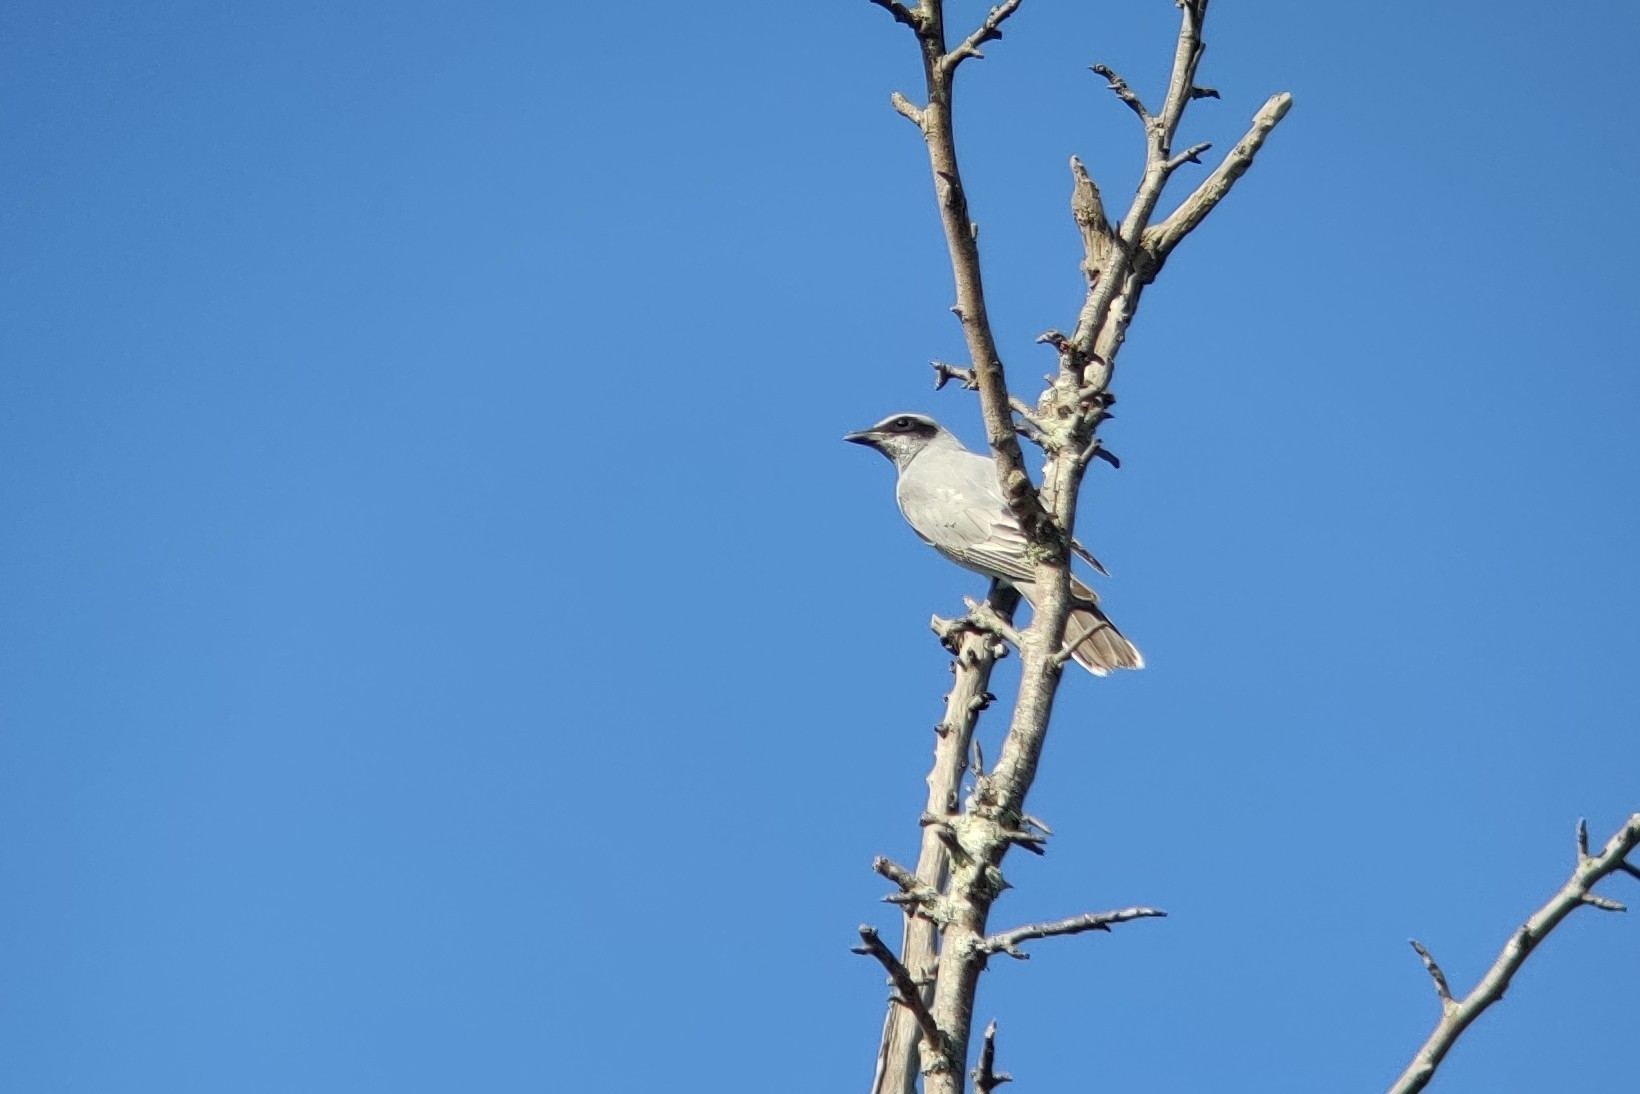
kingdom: Animalia
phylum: Chordata
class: Aves
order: Passeriformes
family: Campephagidae
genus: Coracina
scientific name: Coracina novaehollandiae
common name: Black-faced cuckooshrike
